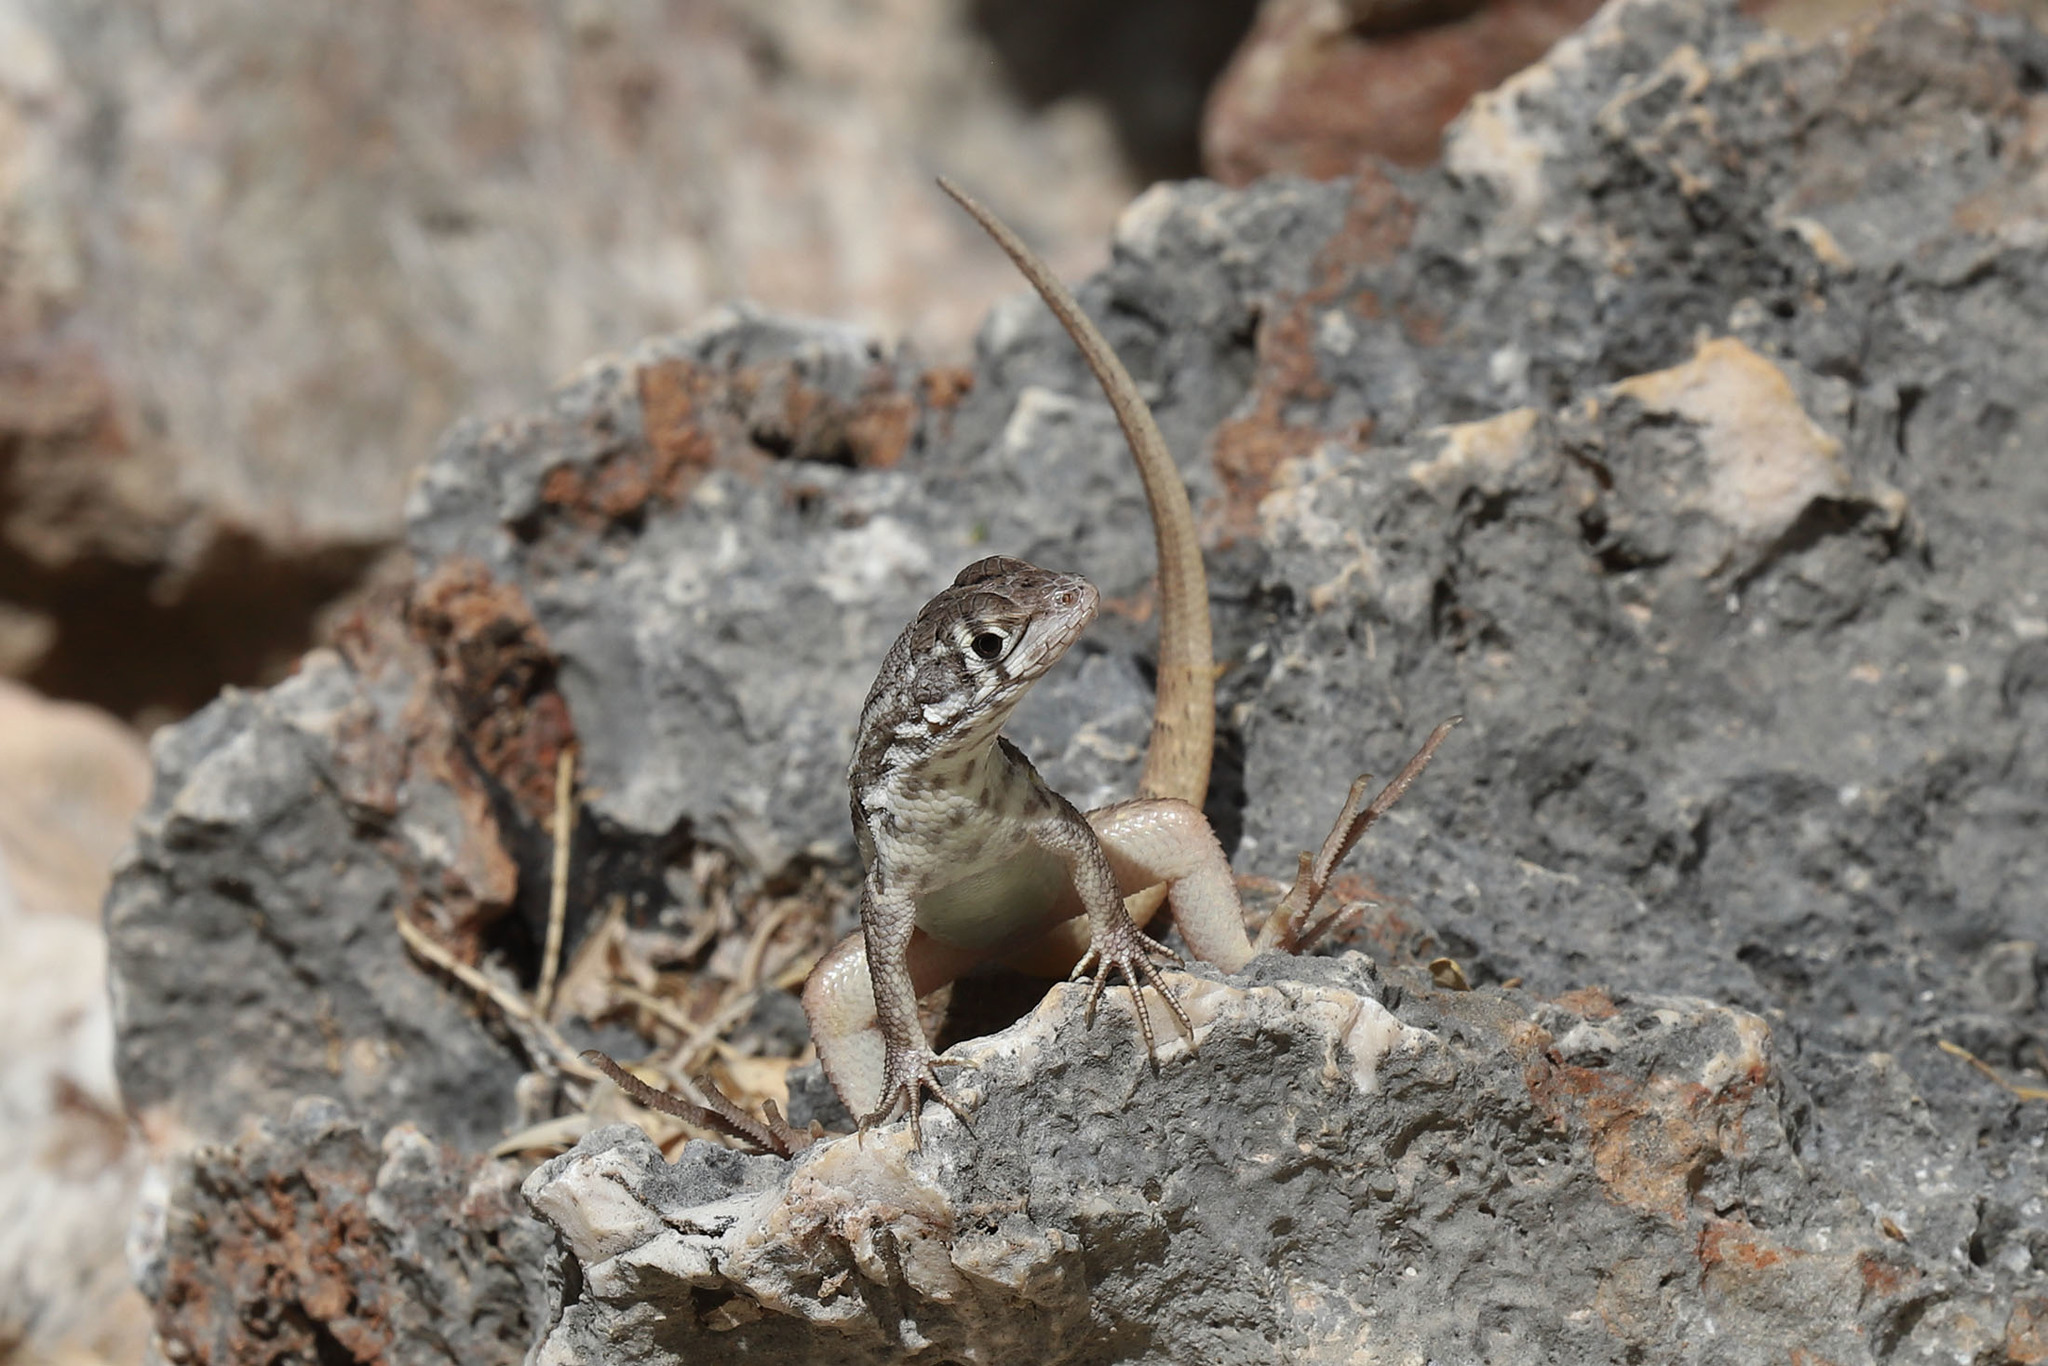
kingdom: Animalia
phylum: Chordata
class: Squamata
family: Leiocephalidae
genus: Leiocephalus
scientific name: Leiocephalus barahonensis
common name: Barahona curlytail lizard
